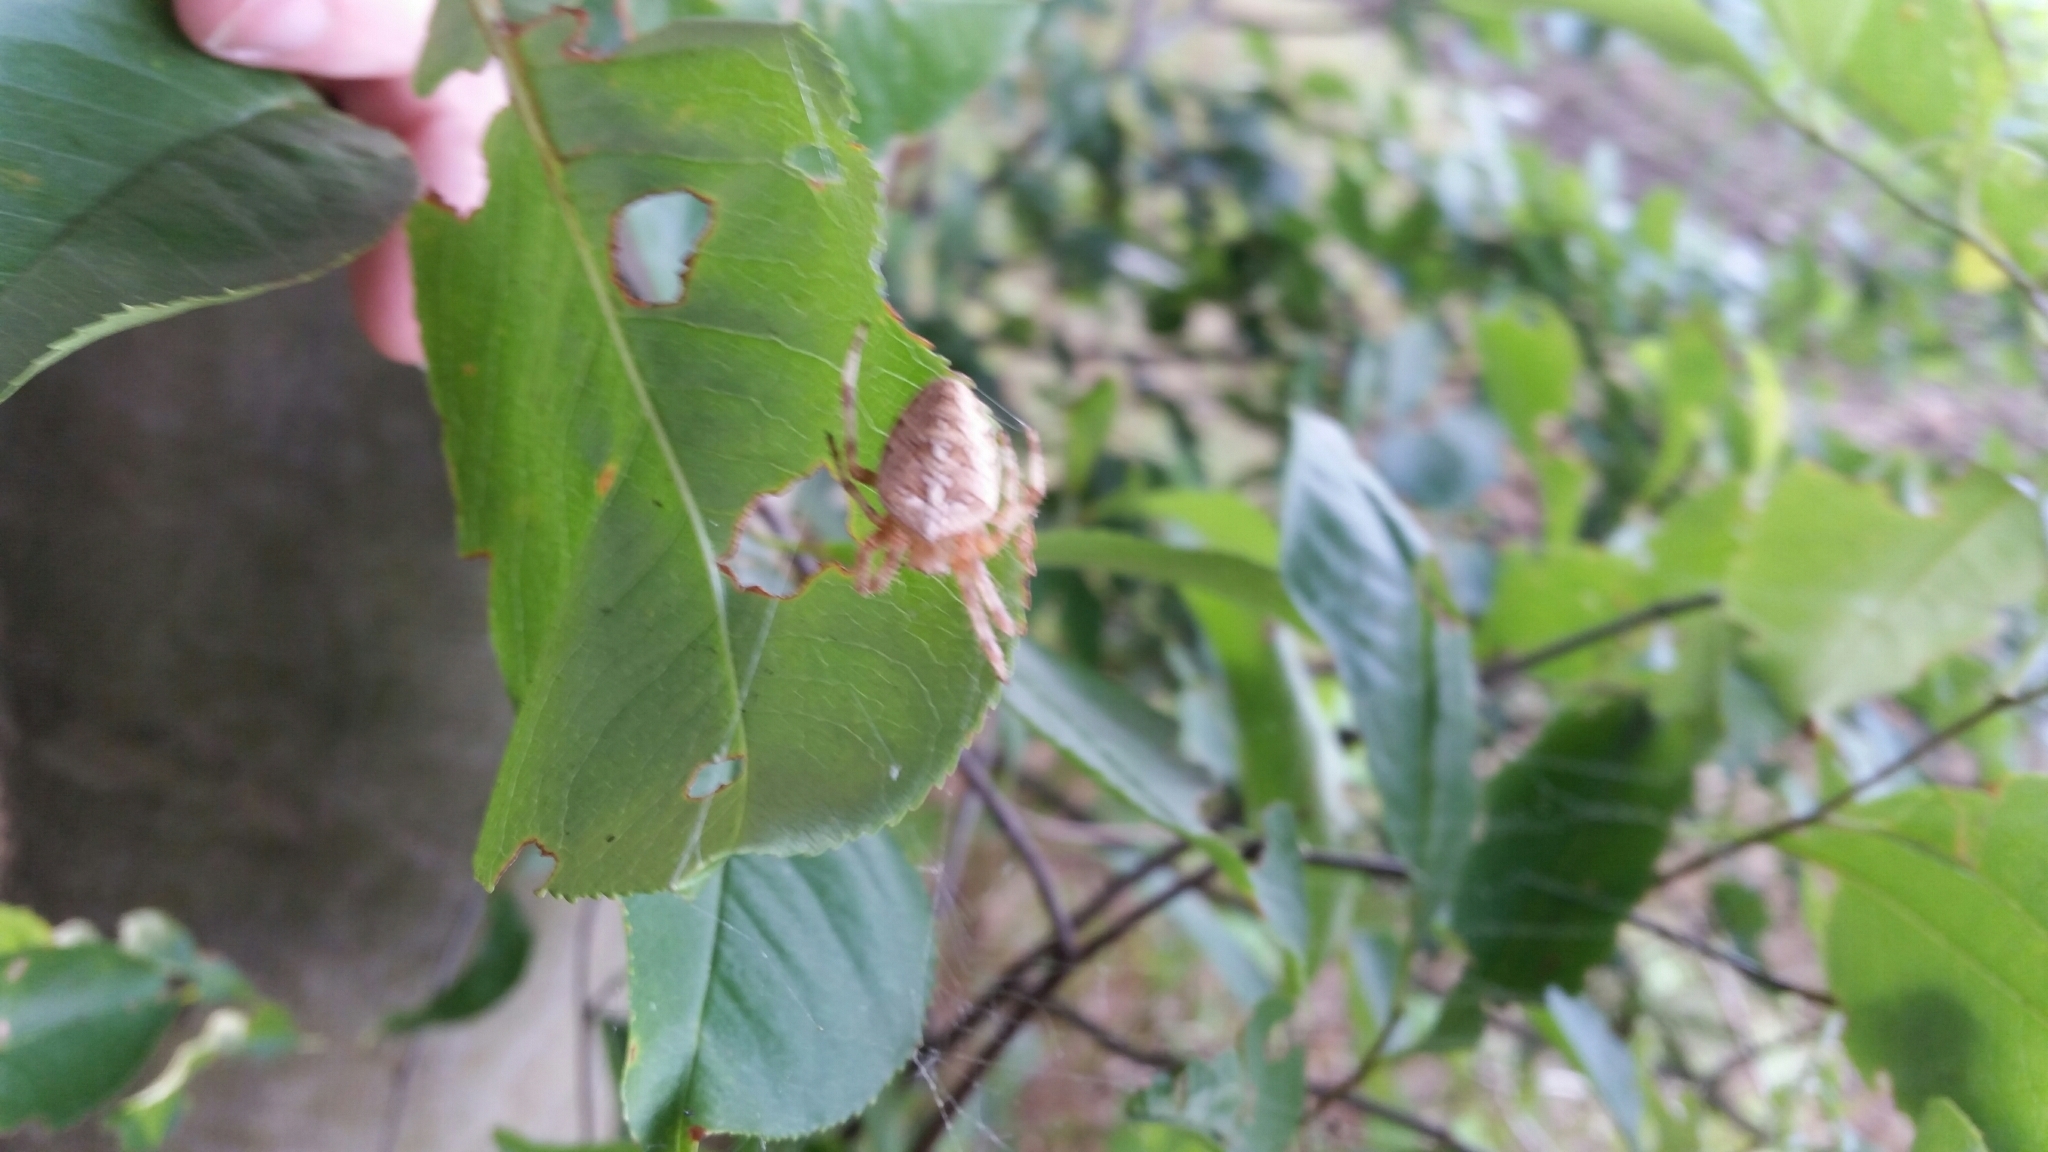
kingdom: Animalia
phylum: Arthropoda
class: Arachnida
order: Araneae
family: Araneidae
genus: Araneus
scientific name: Araneus diadematus
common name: Cross orbweaver
